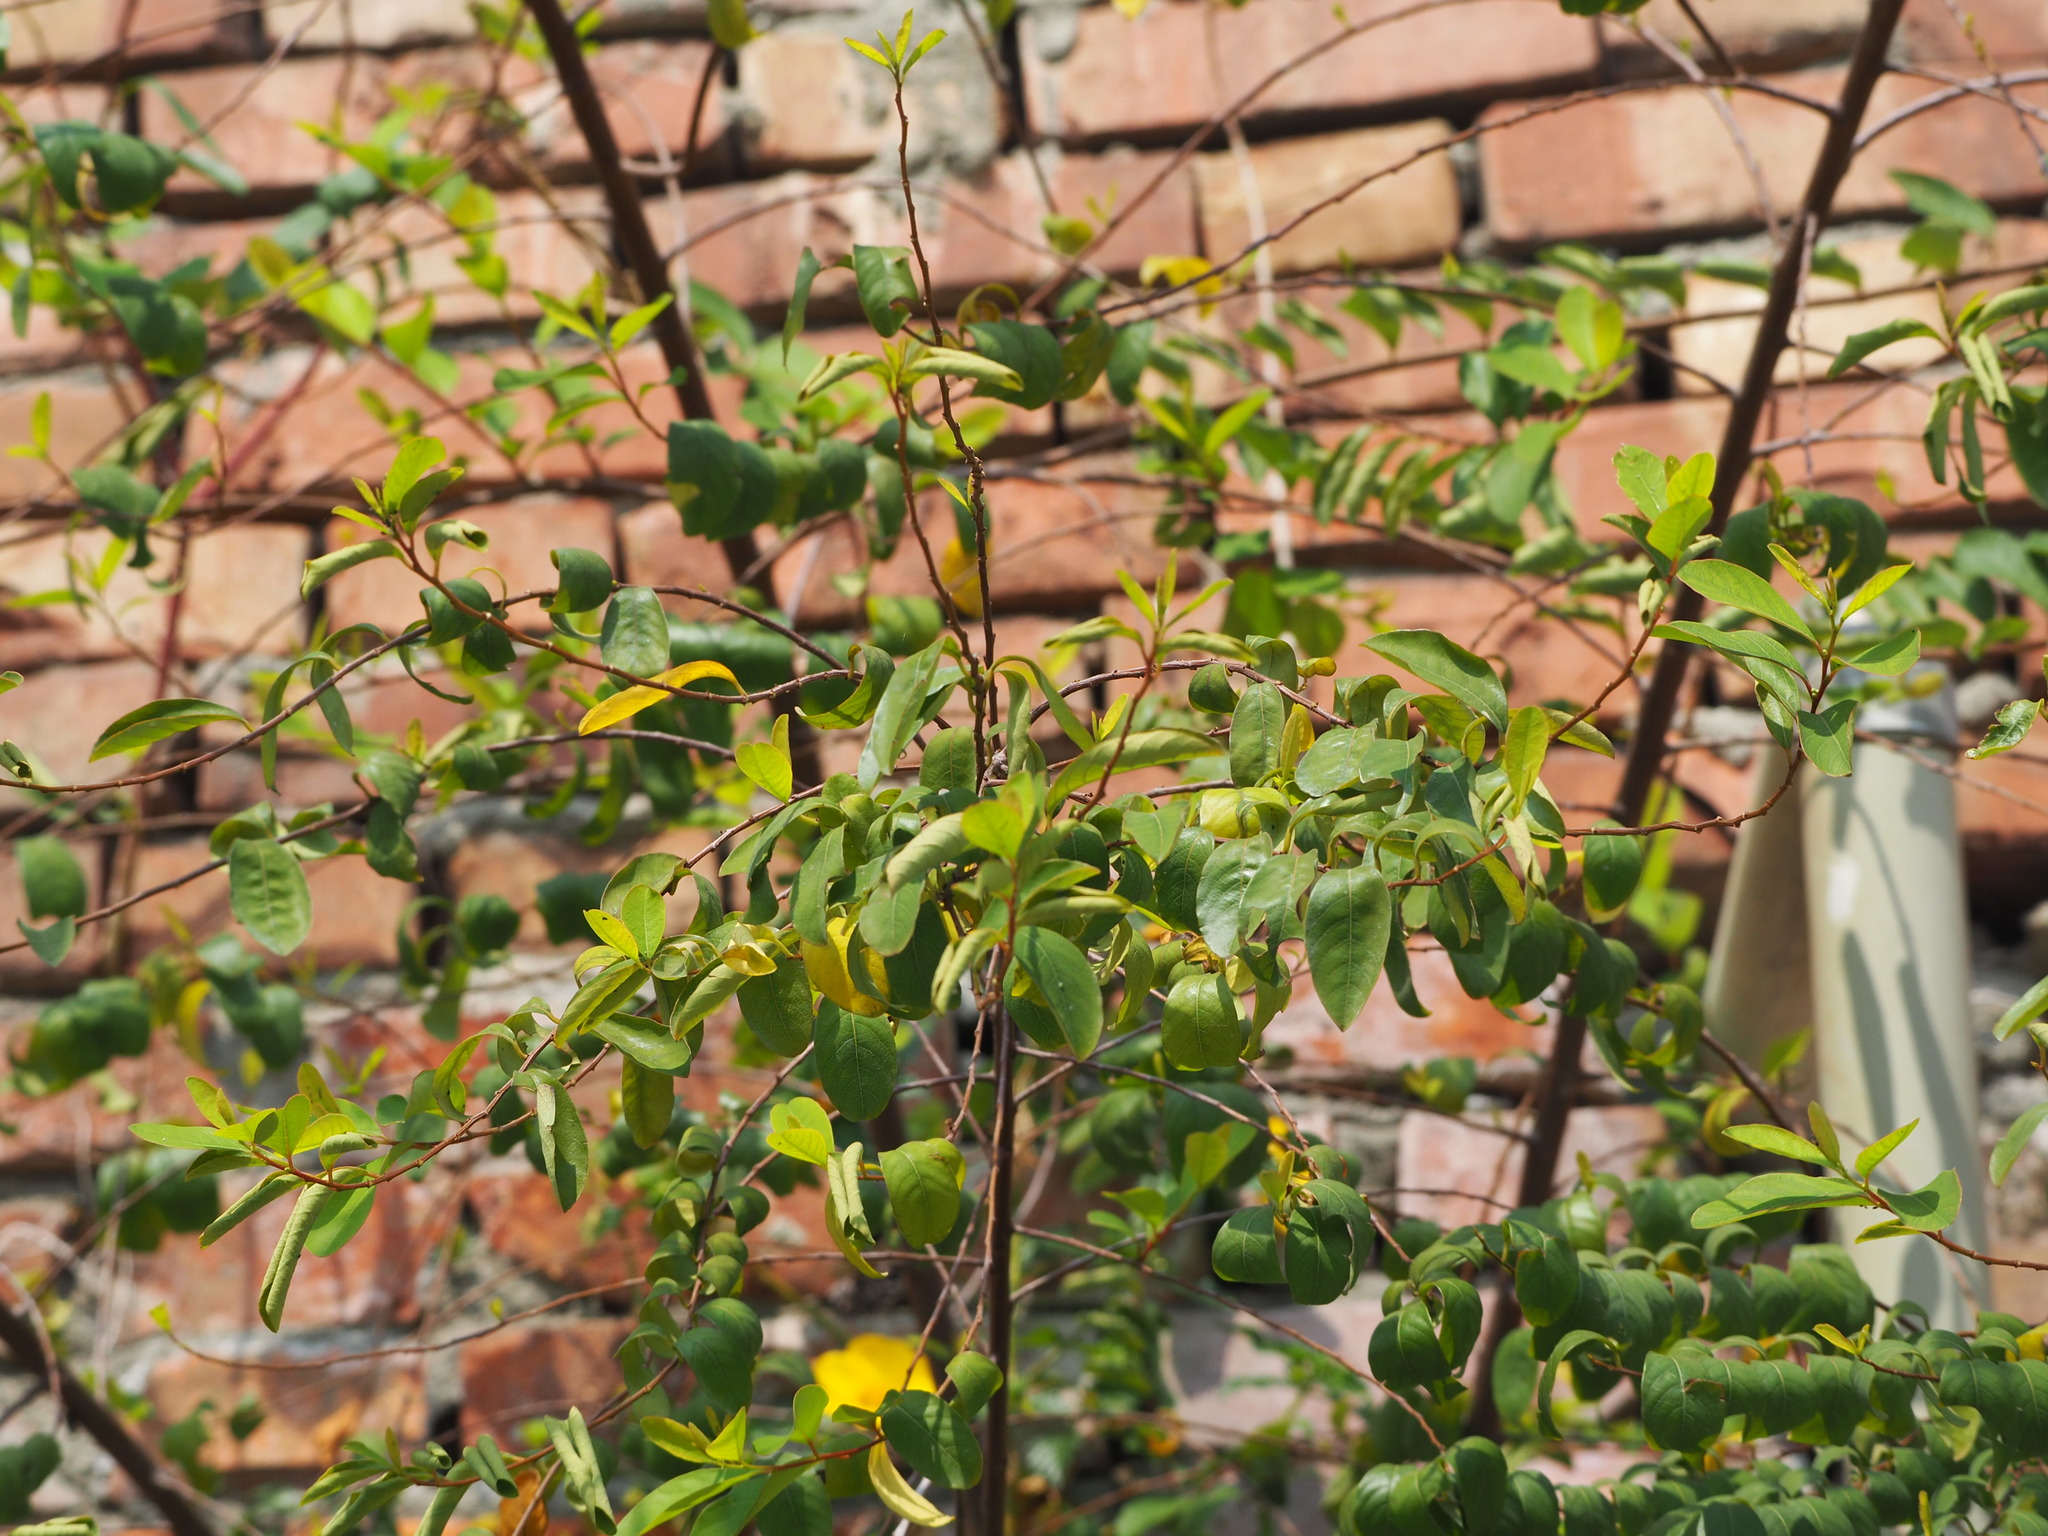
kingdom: Plantae
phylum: Tracheophyta
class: Magnoliopsida
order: Malpighiales
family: Phyllanthaceae
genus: Flueggea
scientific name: Flueggea virosa
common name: Common bushweed
